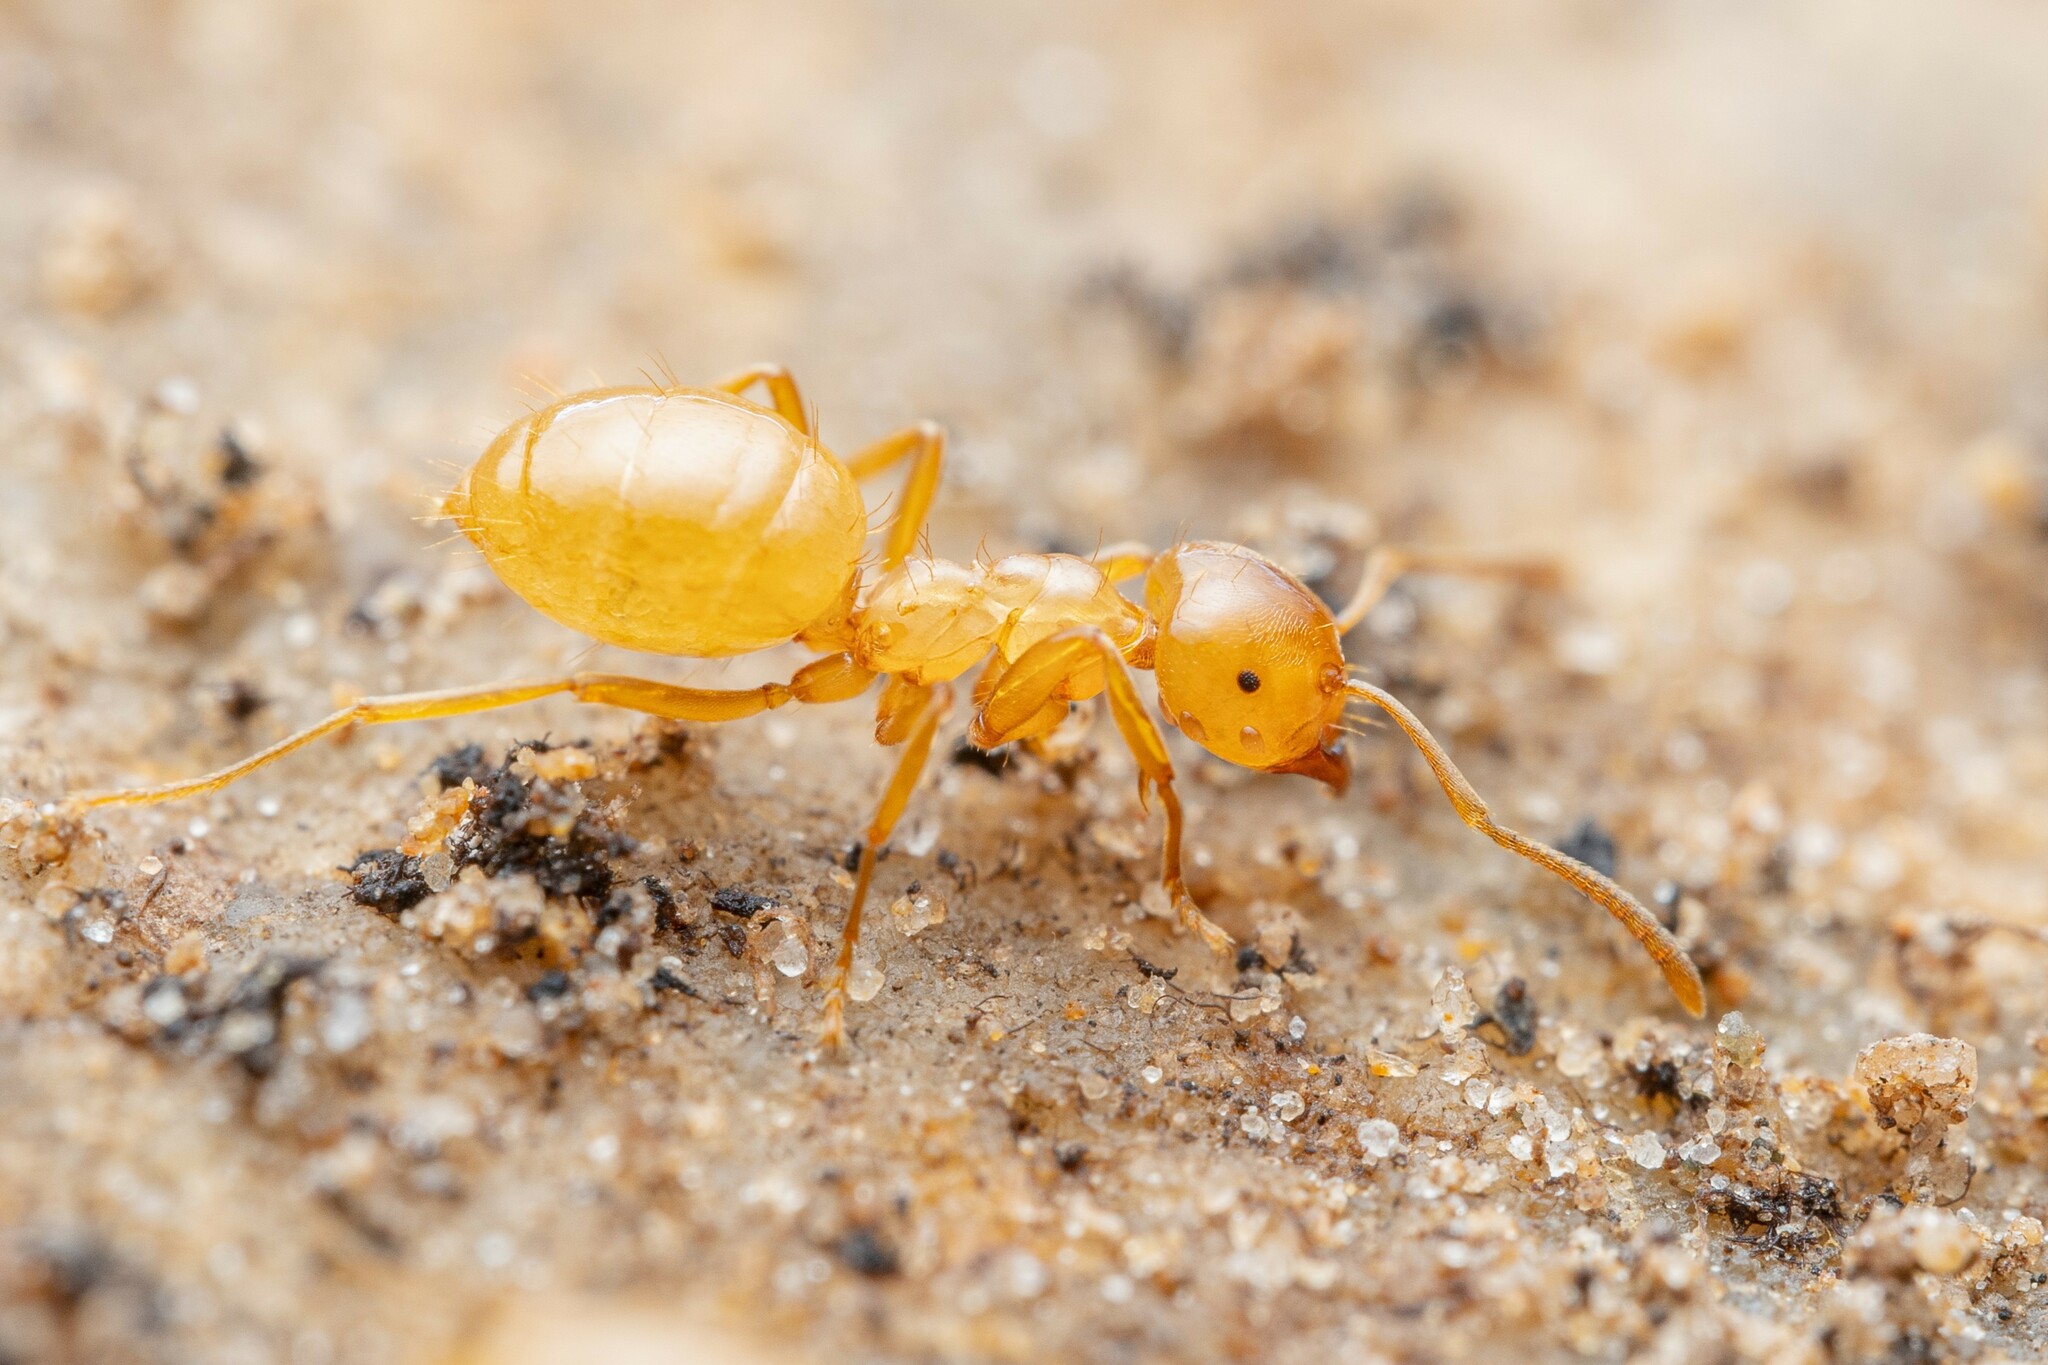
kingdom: Animalia
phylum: Arthropoda
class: Insecta
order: Hymenoptera
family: Formicidae
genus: Lasius
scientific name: Lasius arizonicus
